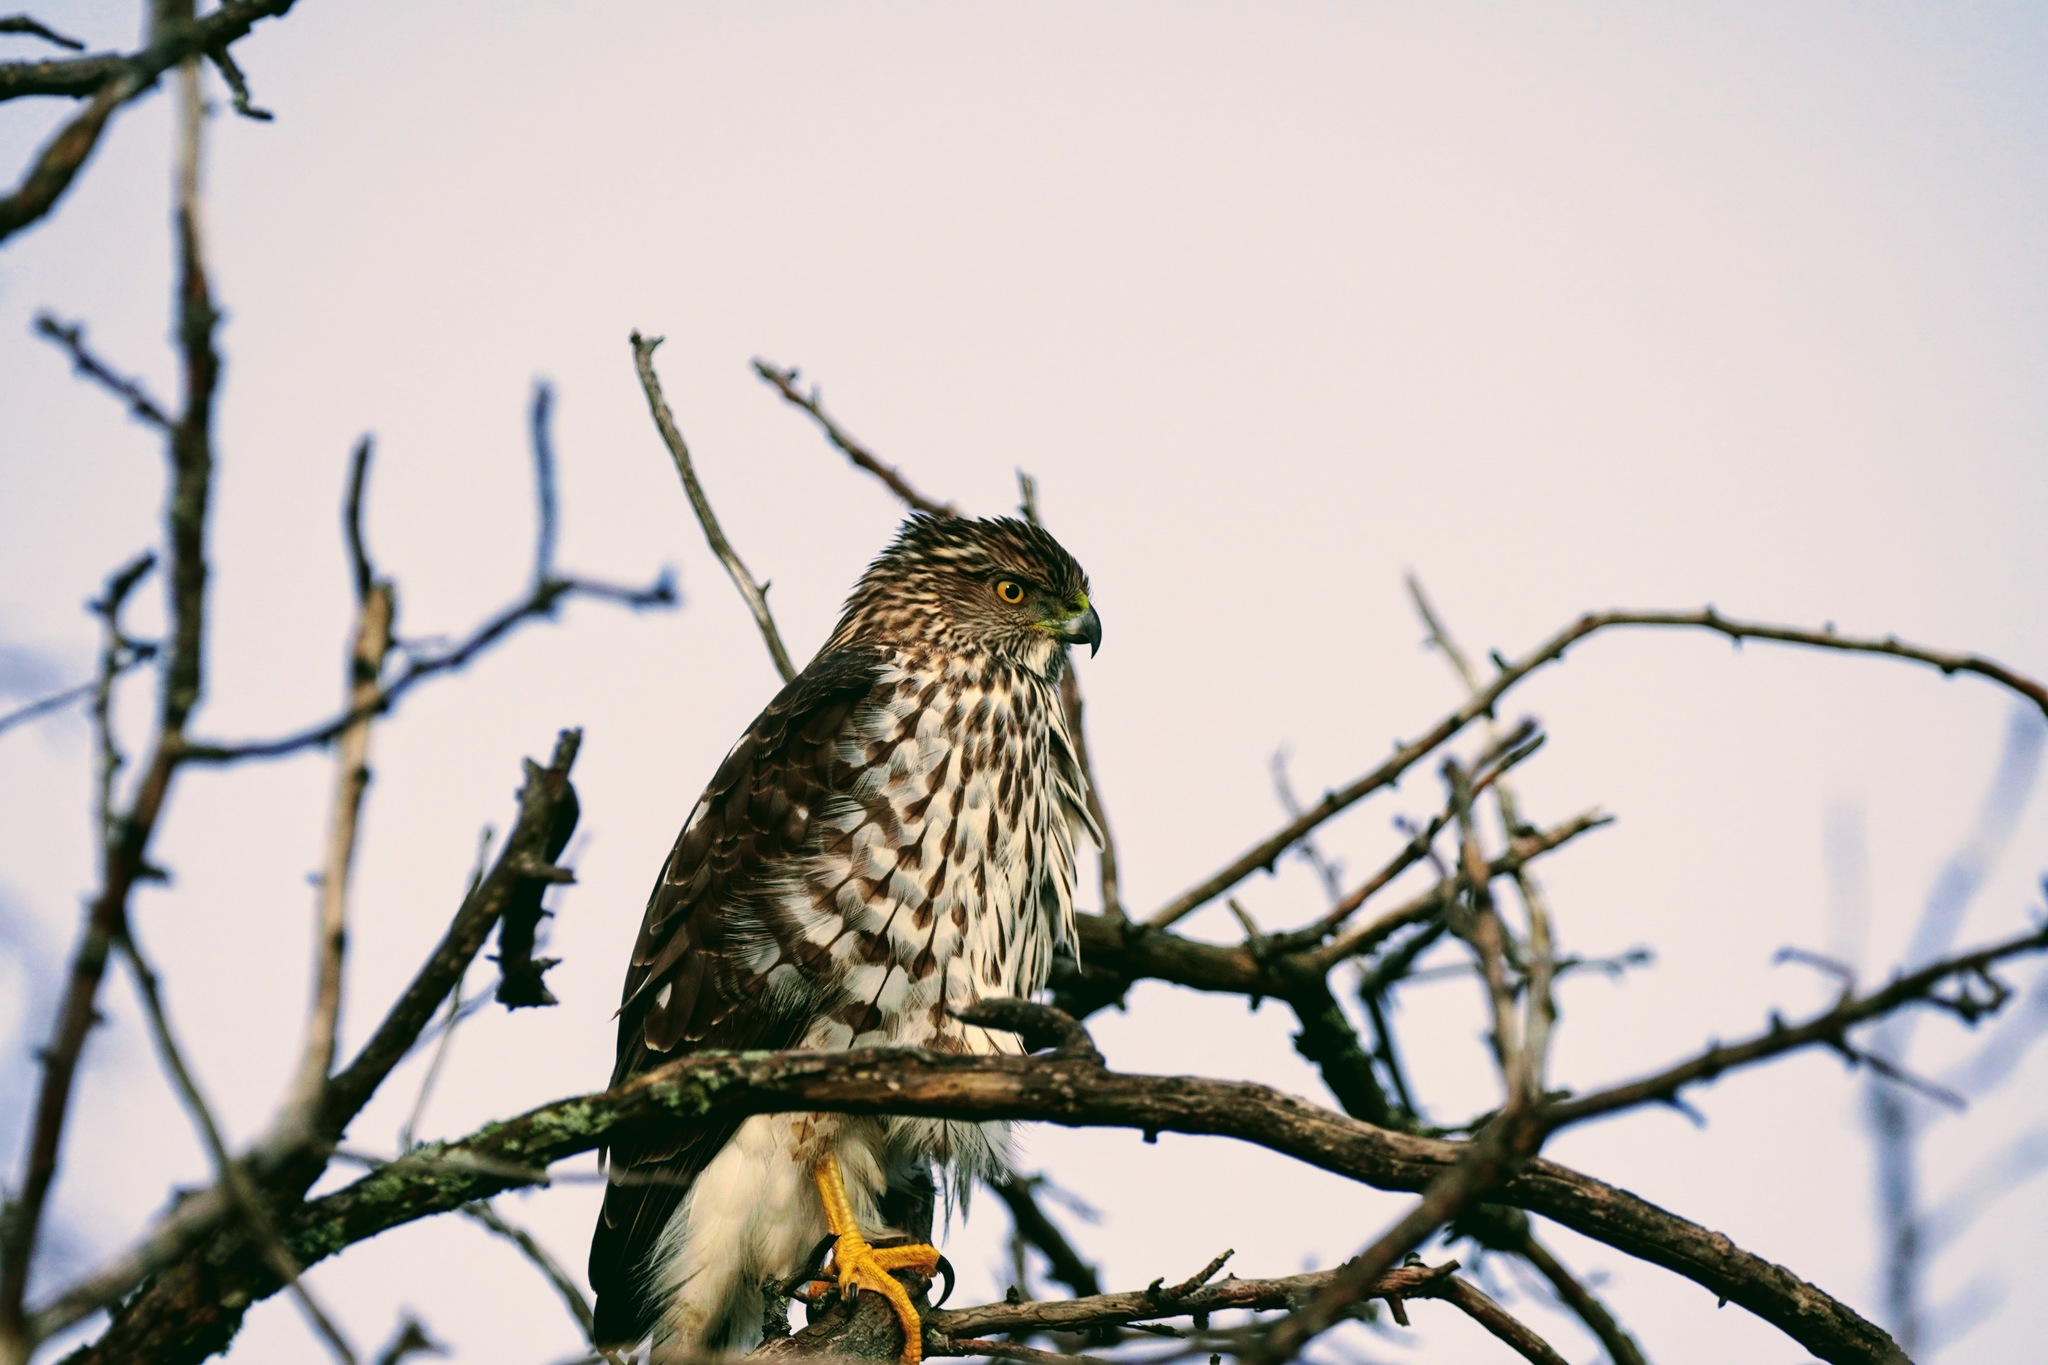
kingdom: Animalia
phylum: Chordata
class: Aves
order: Accipitriformes
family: Accipitridae
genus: Accipiter
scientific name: Accipiter cooperii
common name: Cooper's hawk
